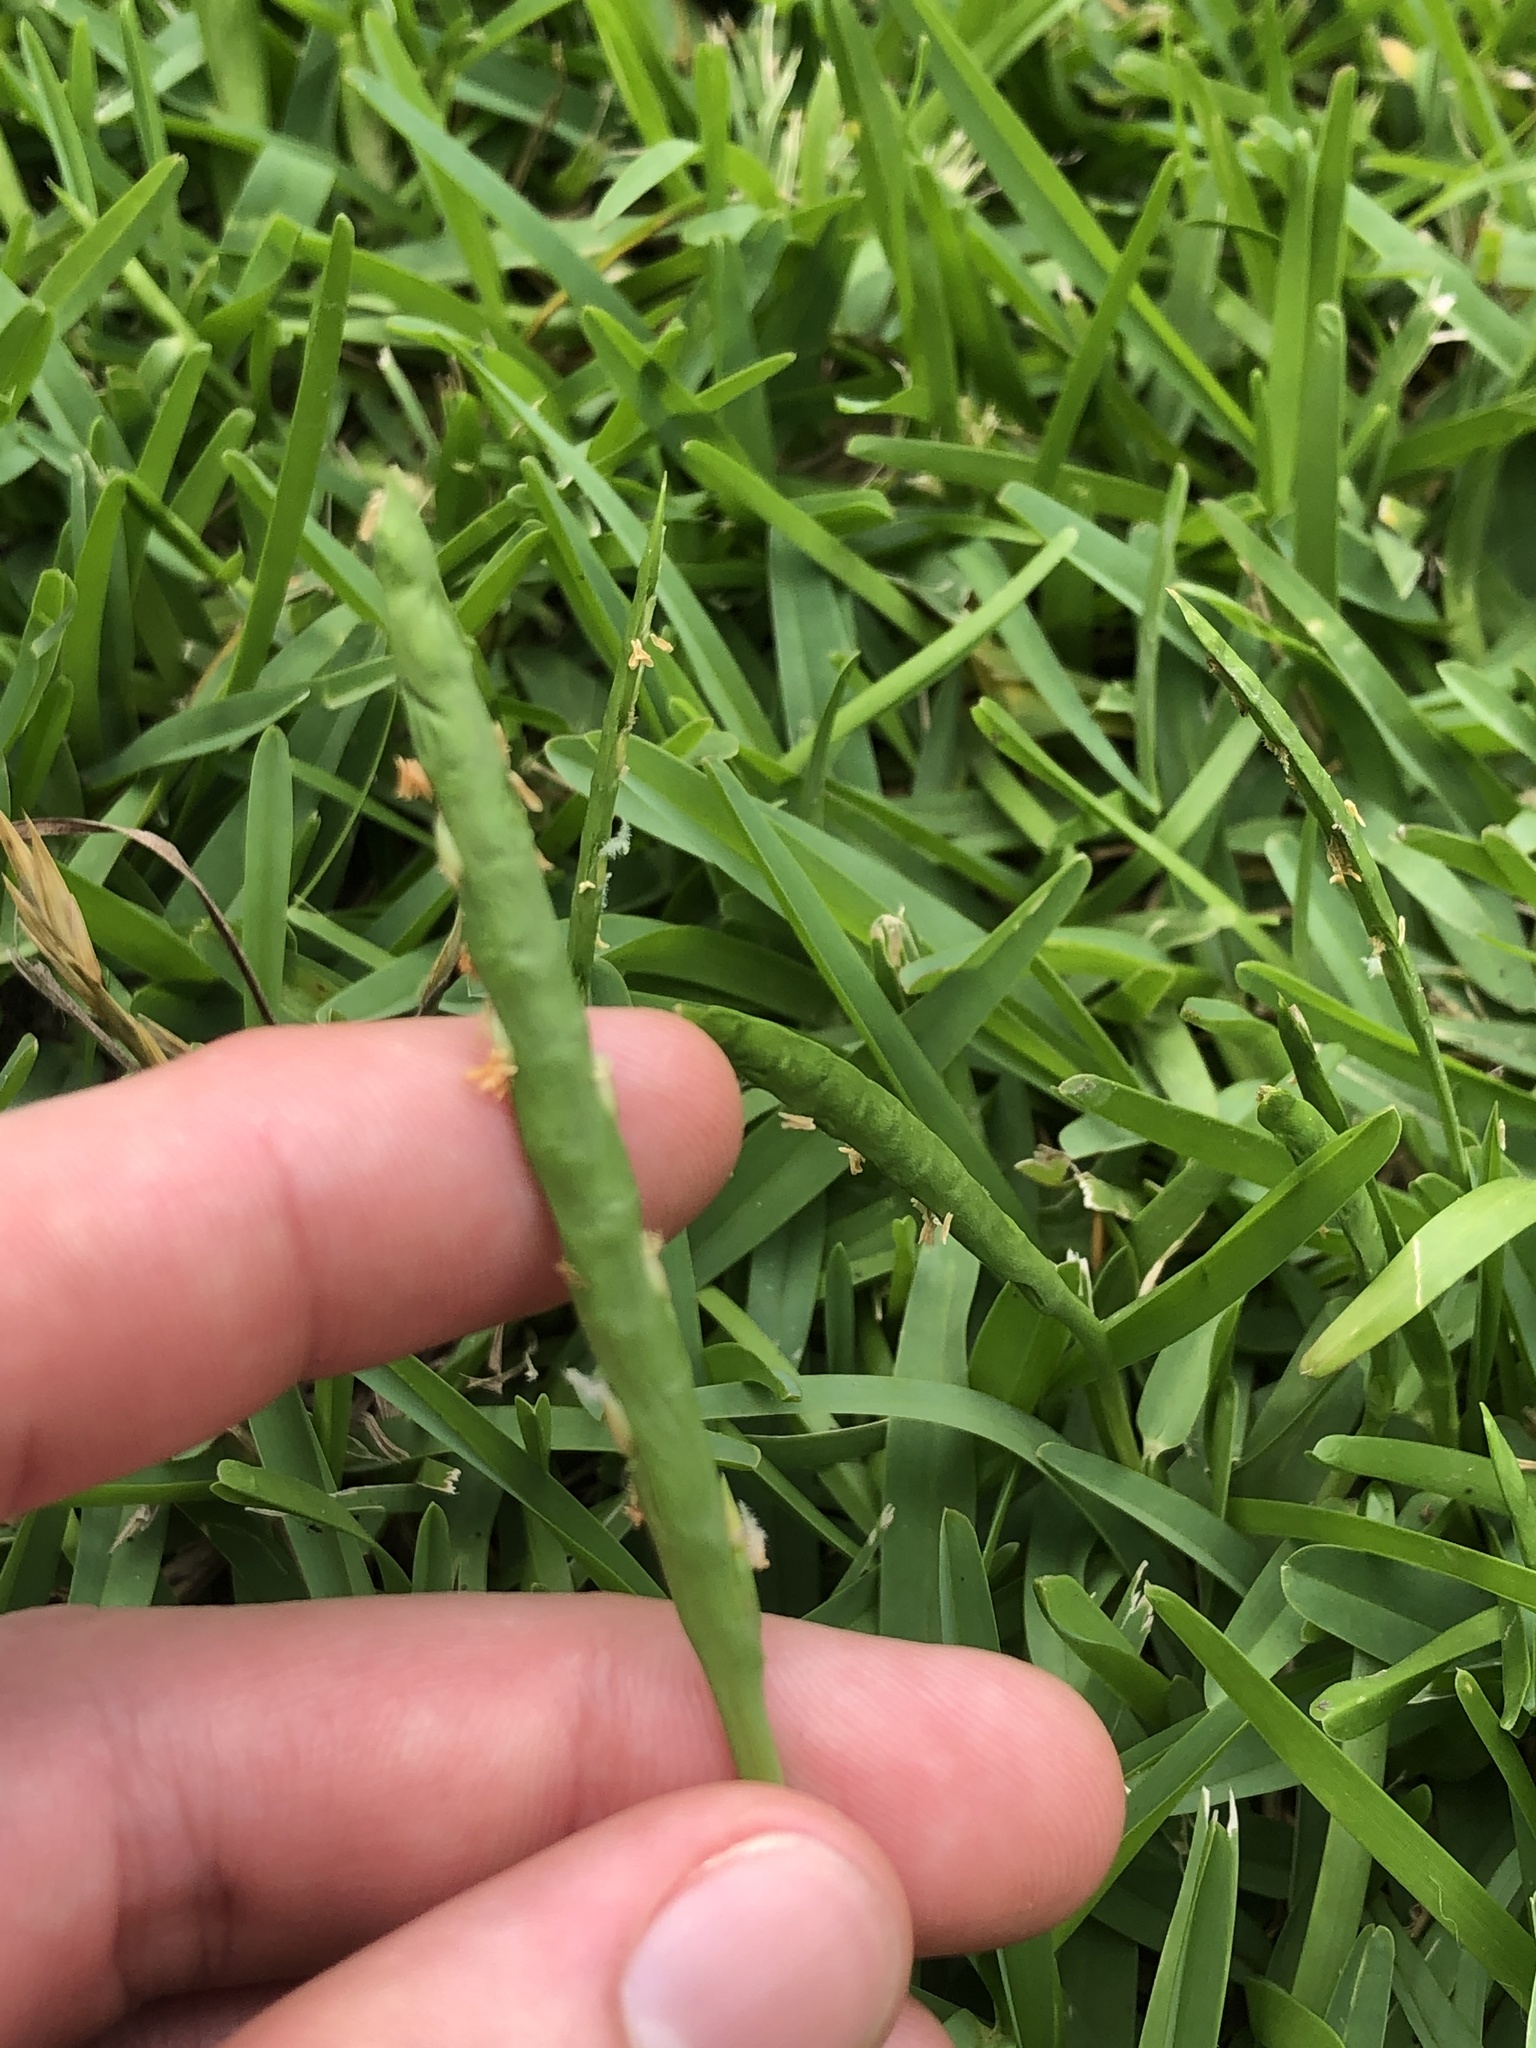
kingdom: Plantae
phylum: Tracheophyta
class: Liliopsida
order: Poales
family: Poaceae
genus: Stenotaphrum
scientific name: Stenotaphrum secundatum
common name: St. augustine grass
